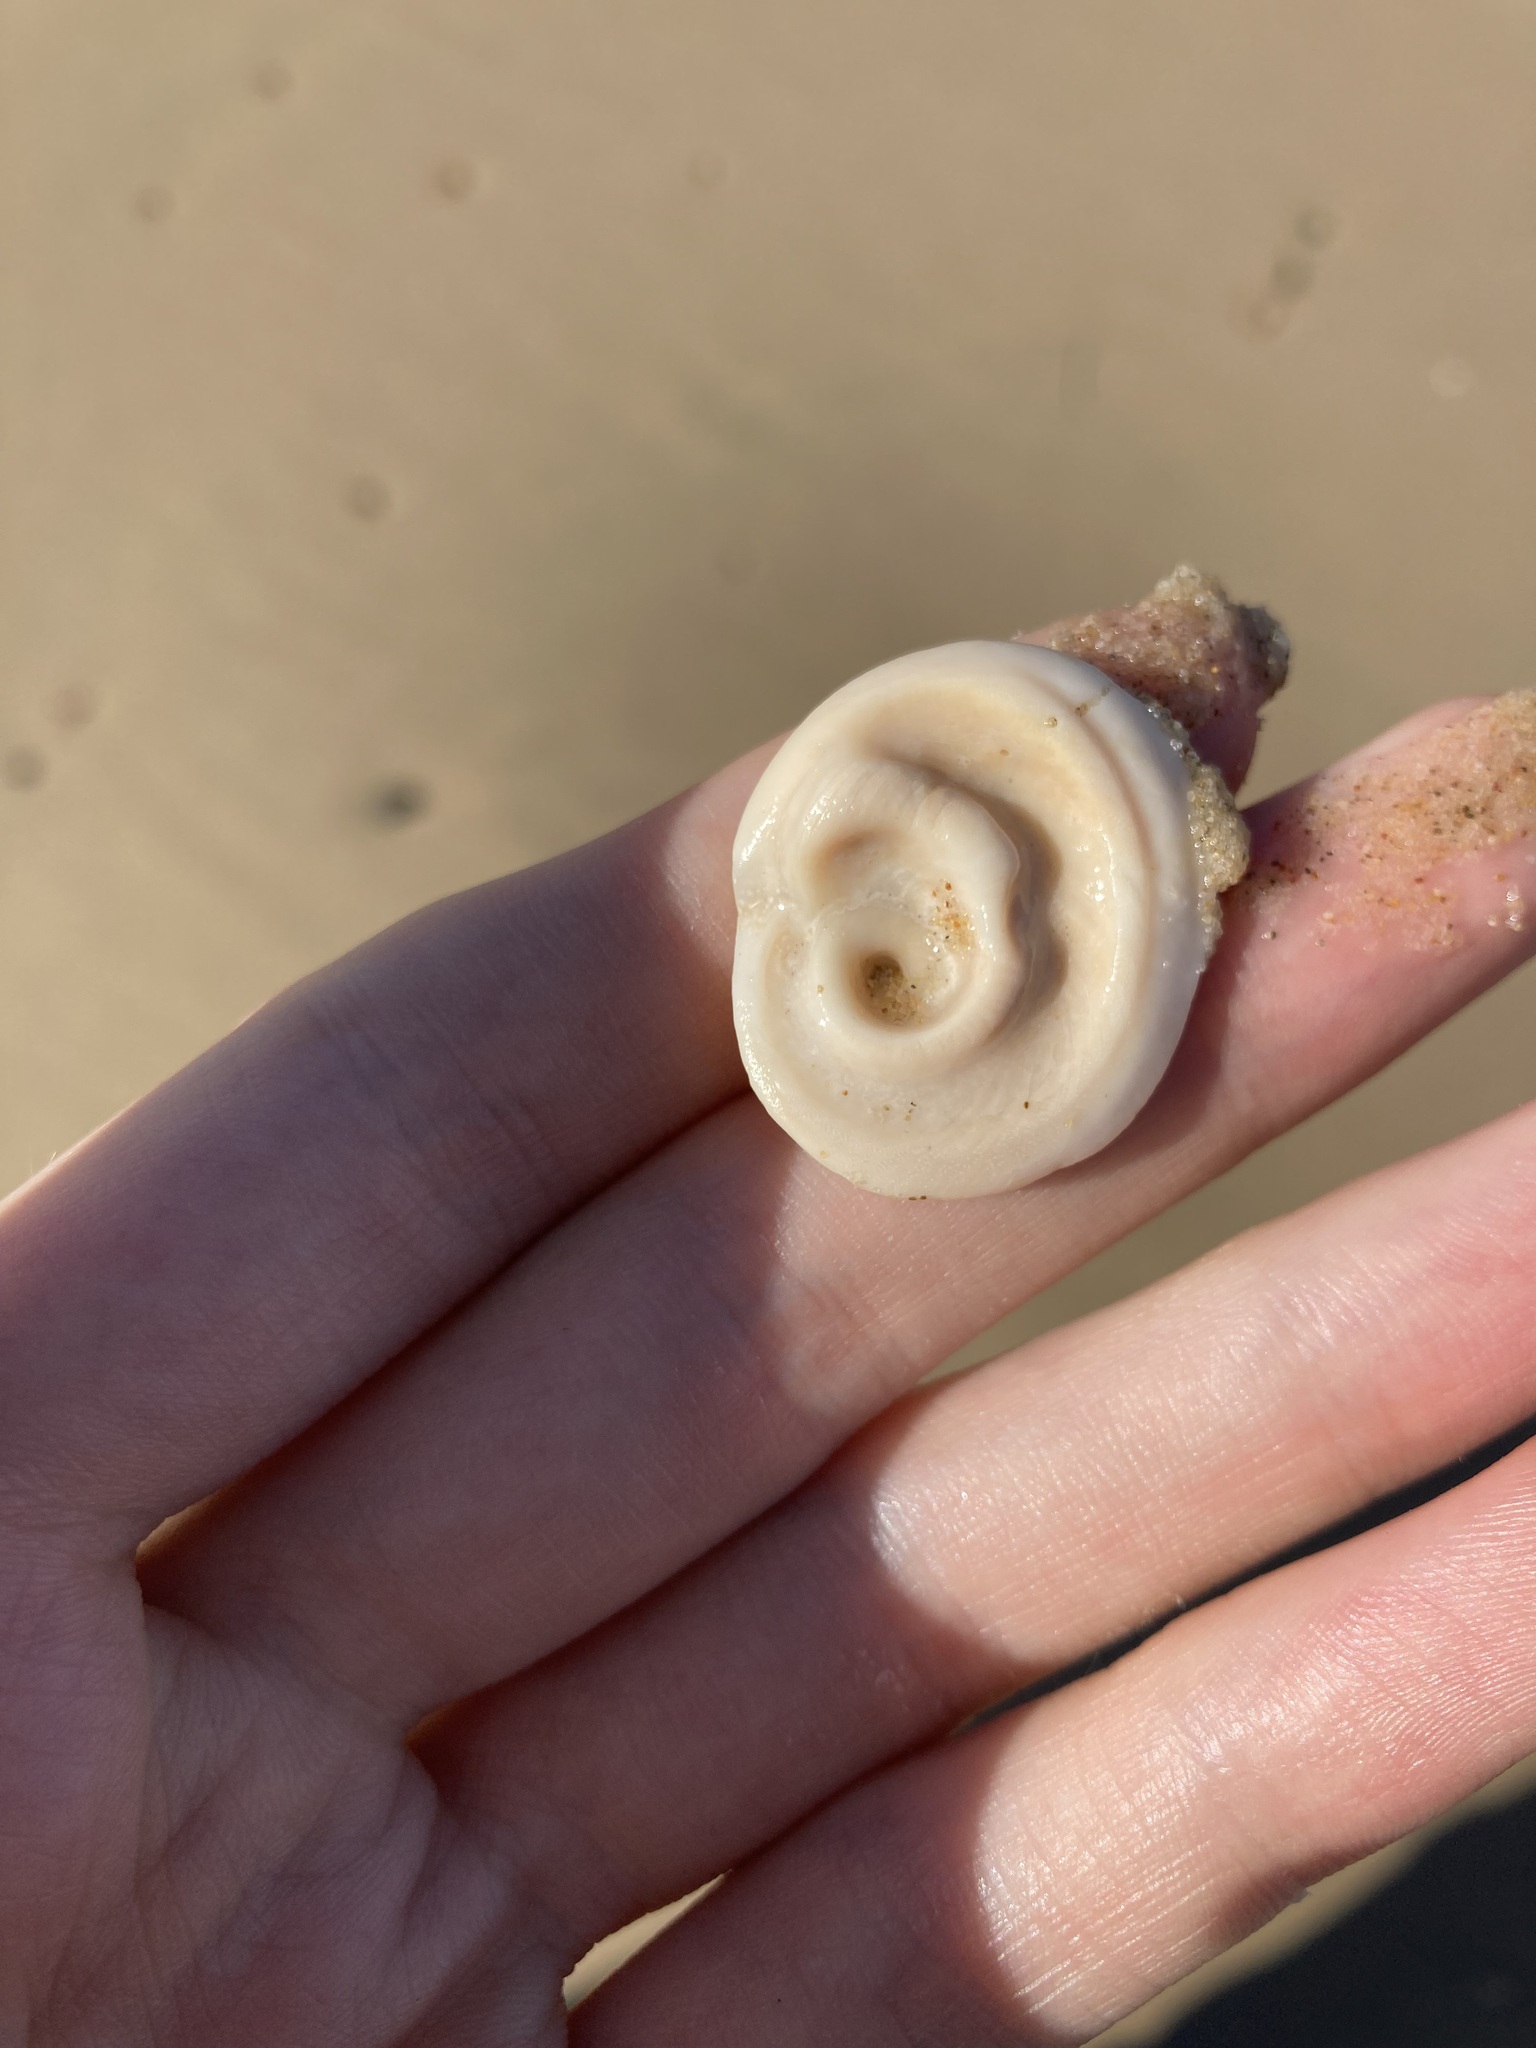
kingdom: Animalia
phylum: Mollusca
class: Gastropoda
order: Trochida
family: Turbinidae
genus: Lunella
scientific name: Lunella torquata
